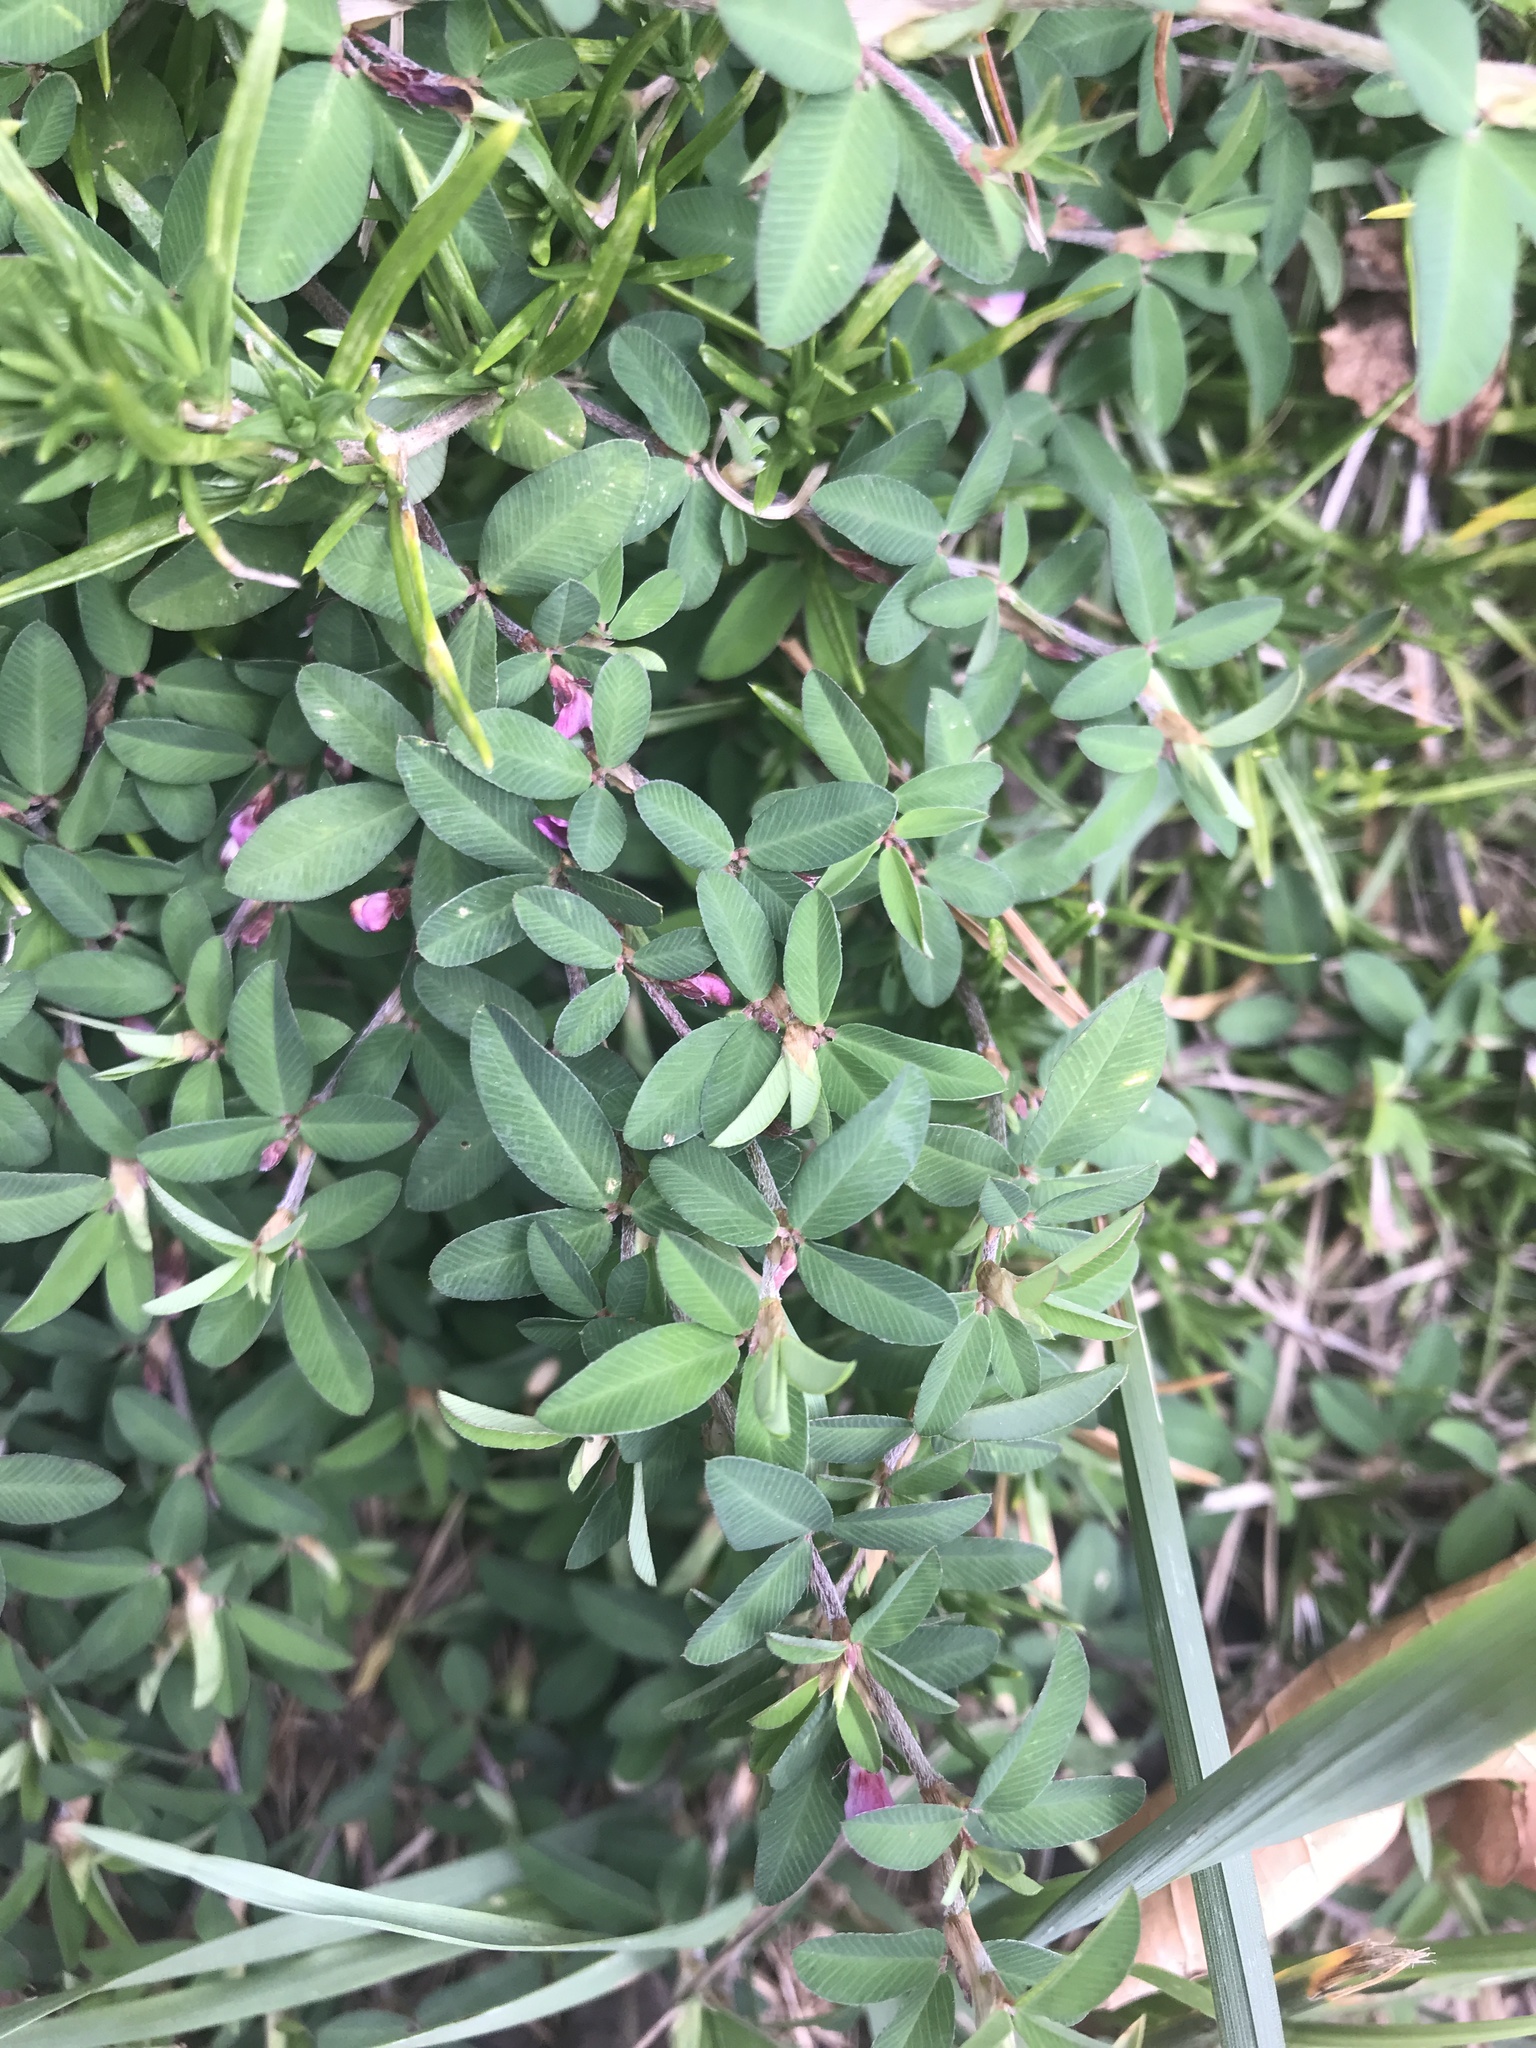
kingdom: Plantae
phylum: Tracheophyta
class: Magnoliopsida
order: Fabales
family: Fabaceae
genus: Kummerowia
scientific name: Kummerowia striata
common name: Japanese clover
